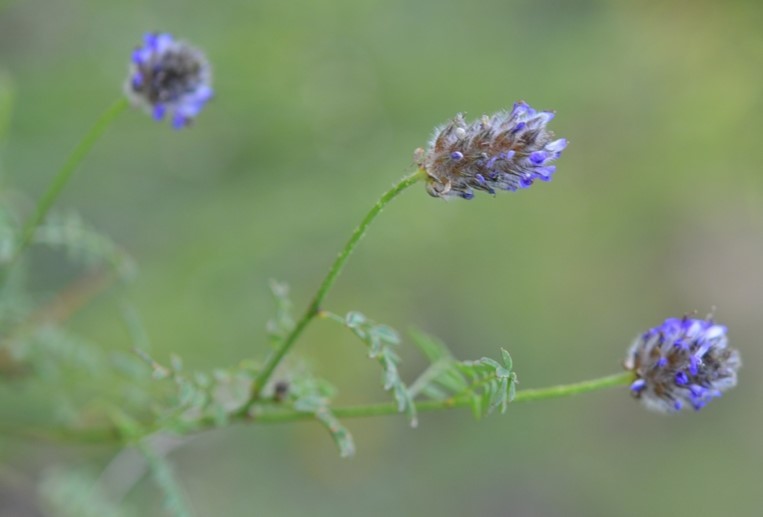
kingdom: Plantae
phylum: Tracheophyta
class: Magnoliopsida
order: Fabales
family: Fabaceae
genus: Dalea
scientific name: Dalea leporina
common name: Foxtail dalea
